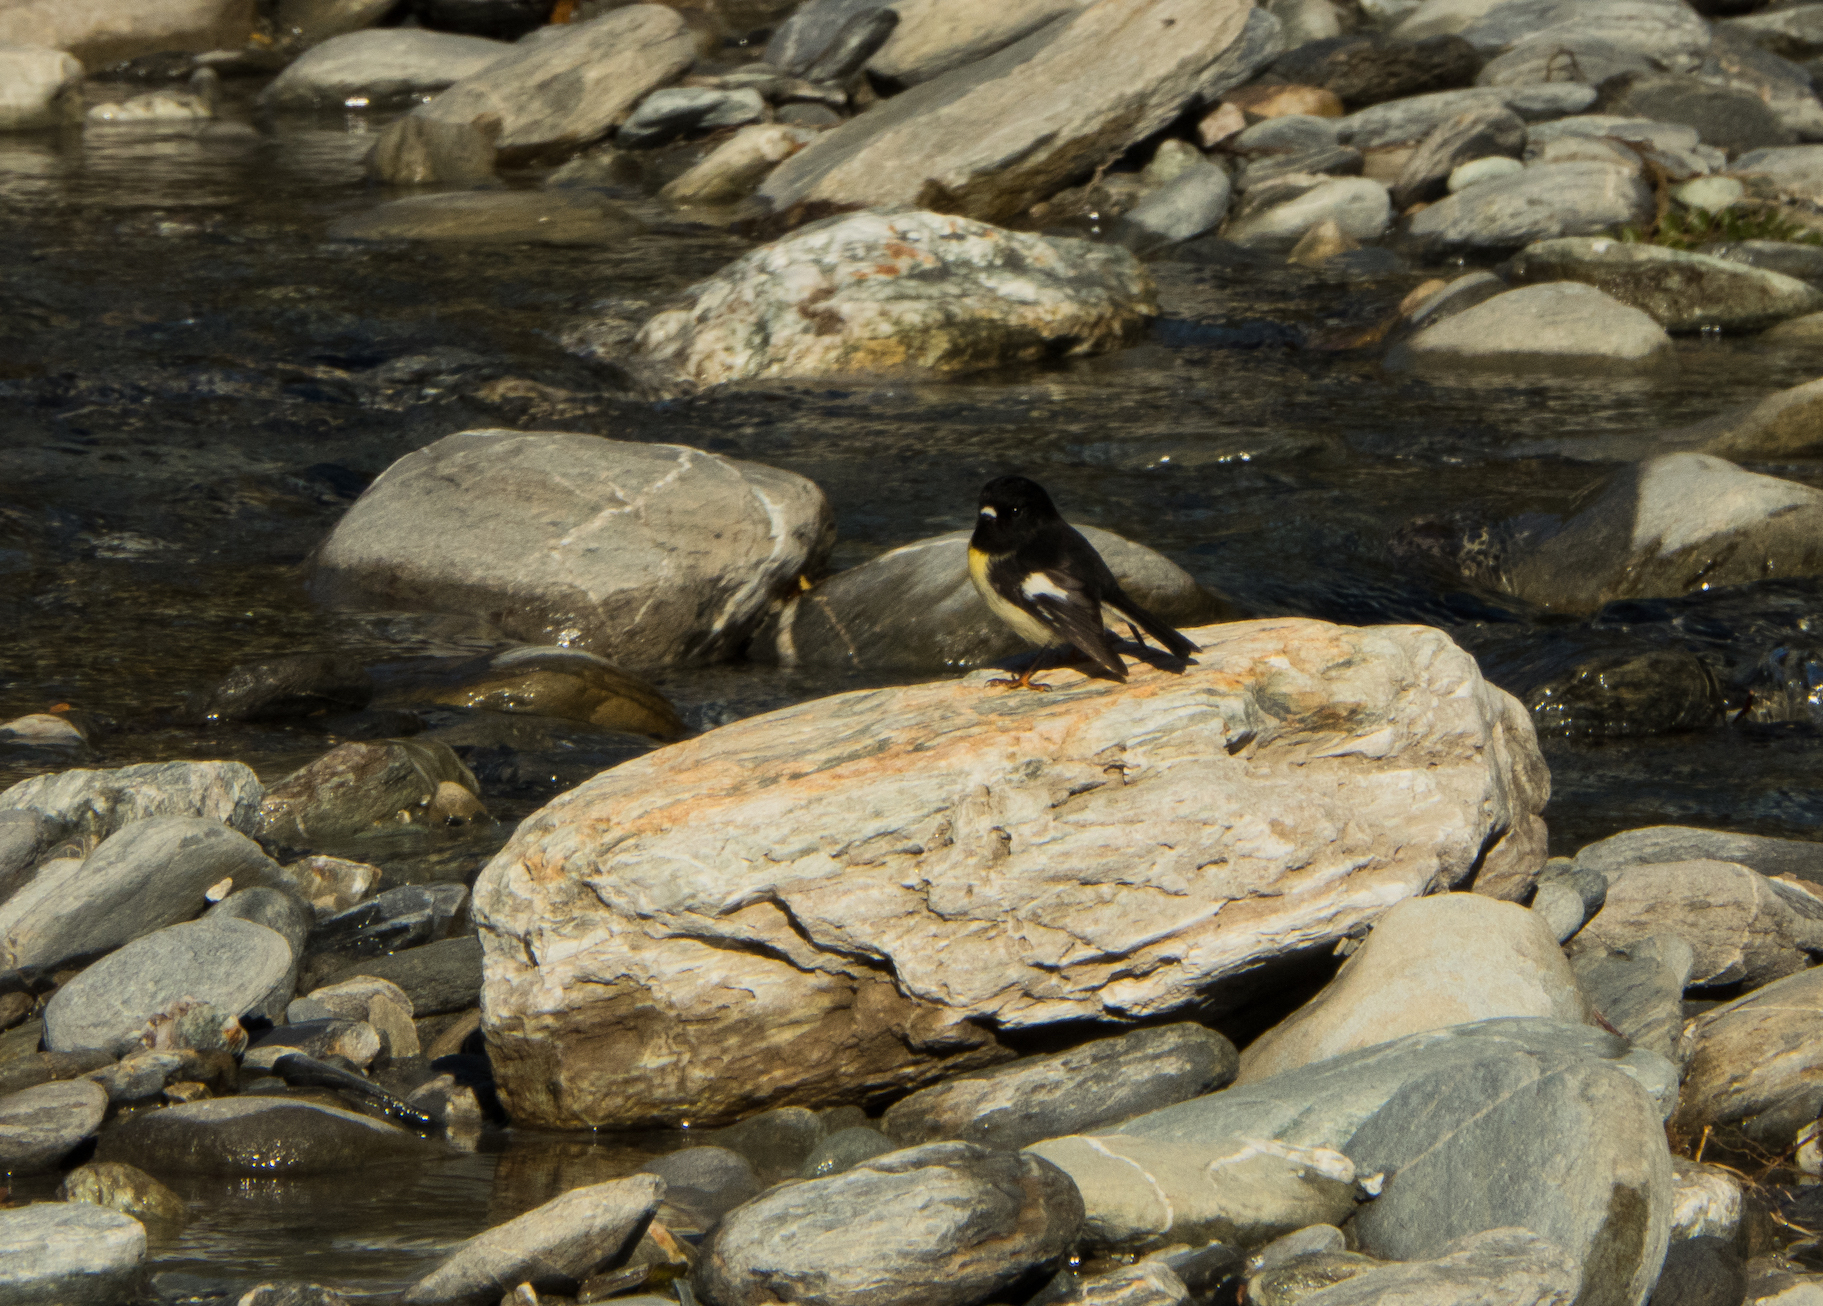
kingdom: Animalia
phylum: Chordata
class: Aves
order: Passeriformes
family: Petroicidae
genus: Petroica
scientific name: Petroica macrocephala
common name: Tomtit
